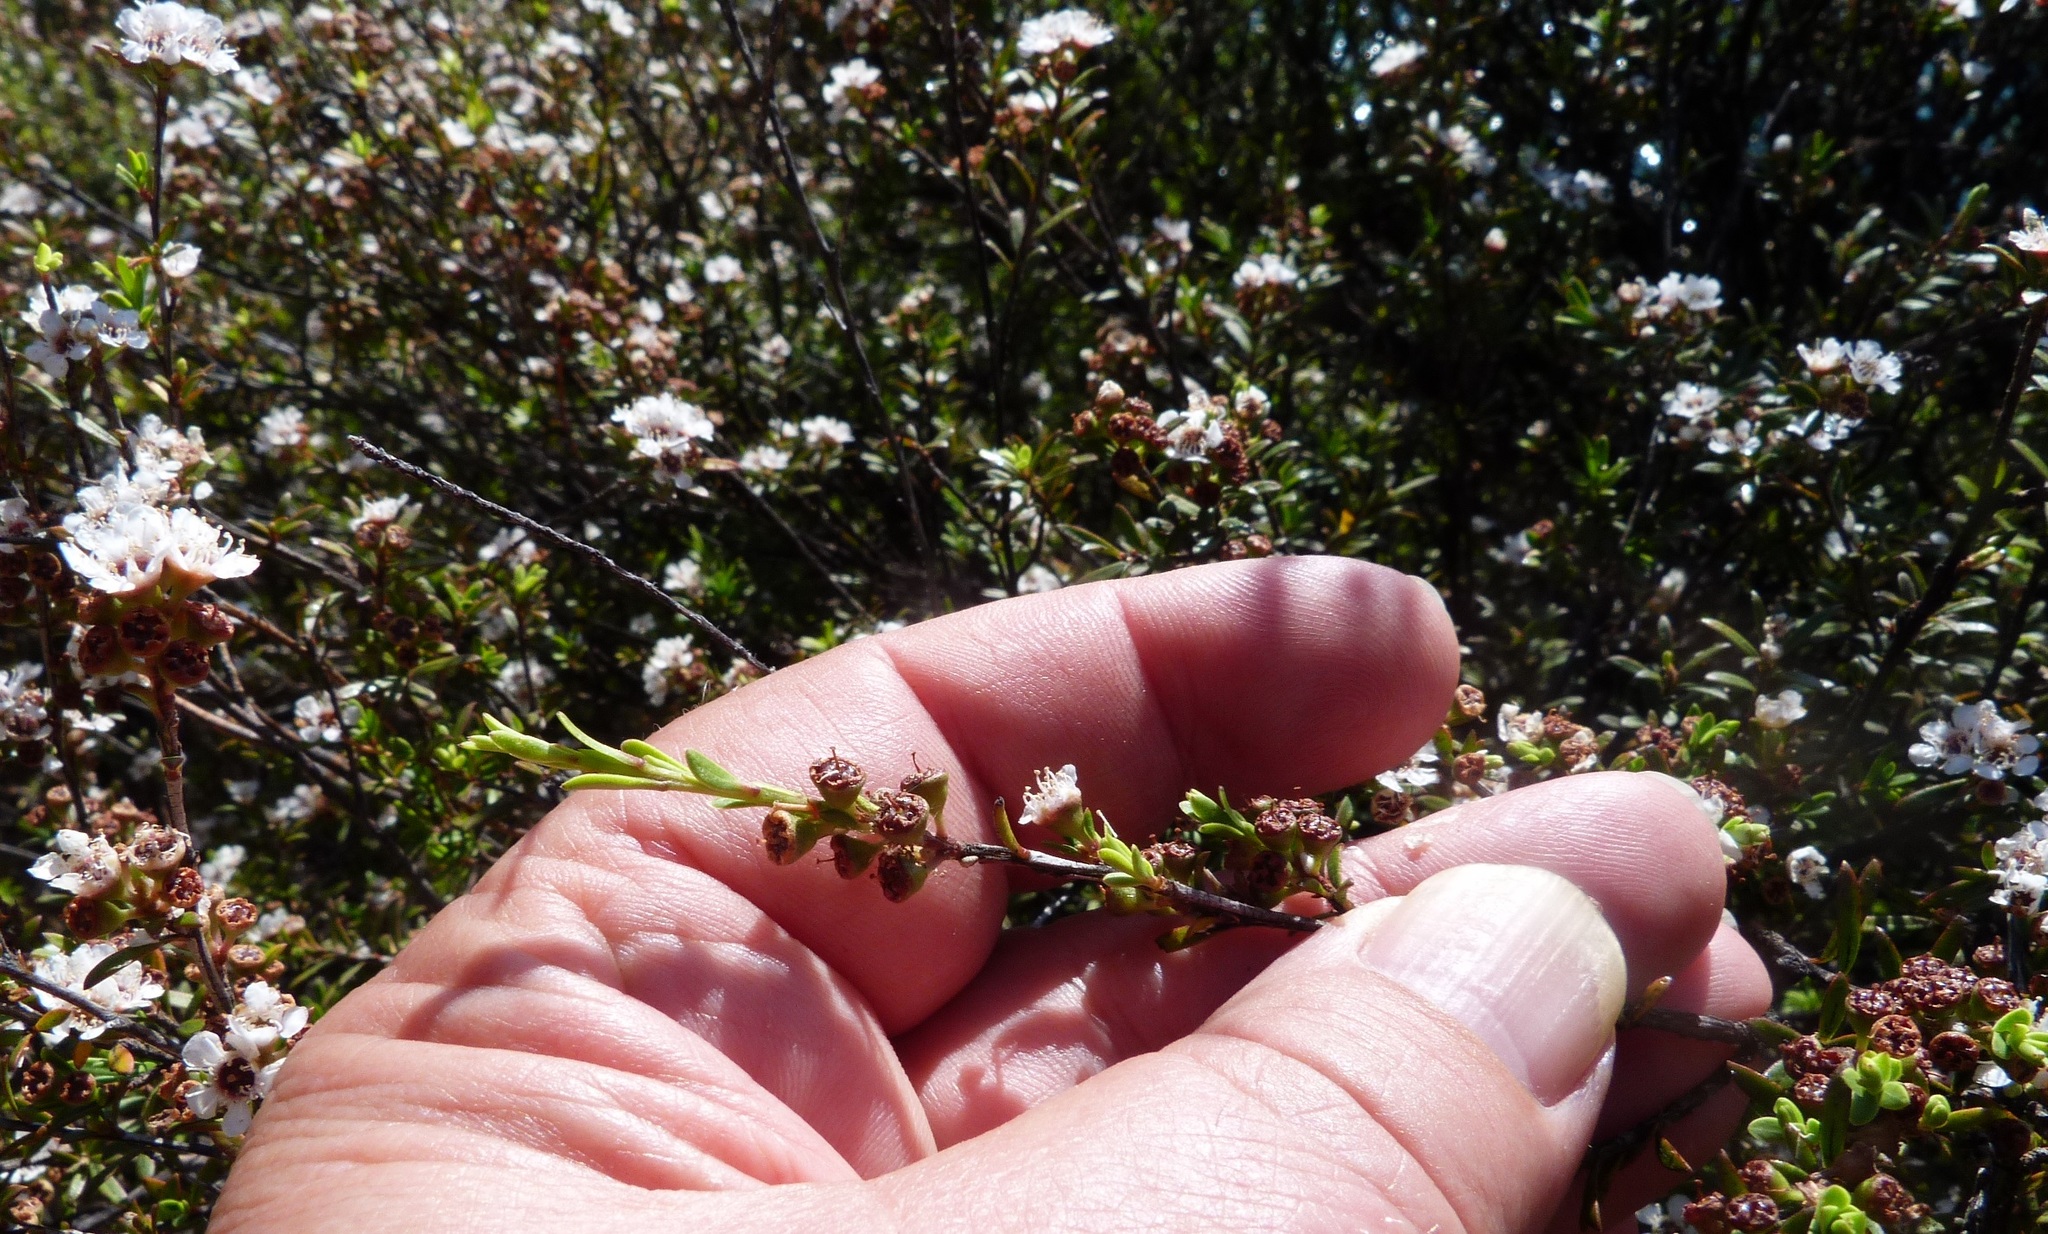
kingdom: Plantae
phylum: Tracheophyta
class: Magnoliopsida
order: Myrtales
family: Myrtaceae
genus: Kunzea
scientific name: Kunzea ericoides
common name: Burgan
